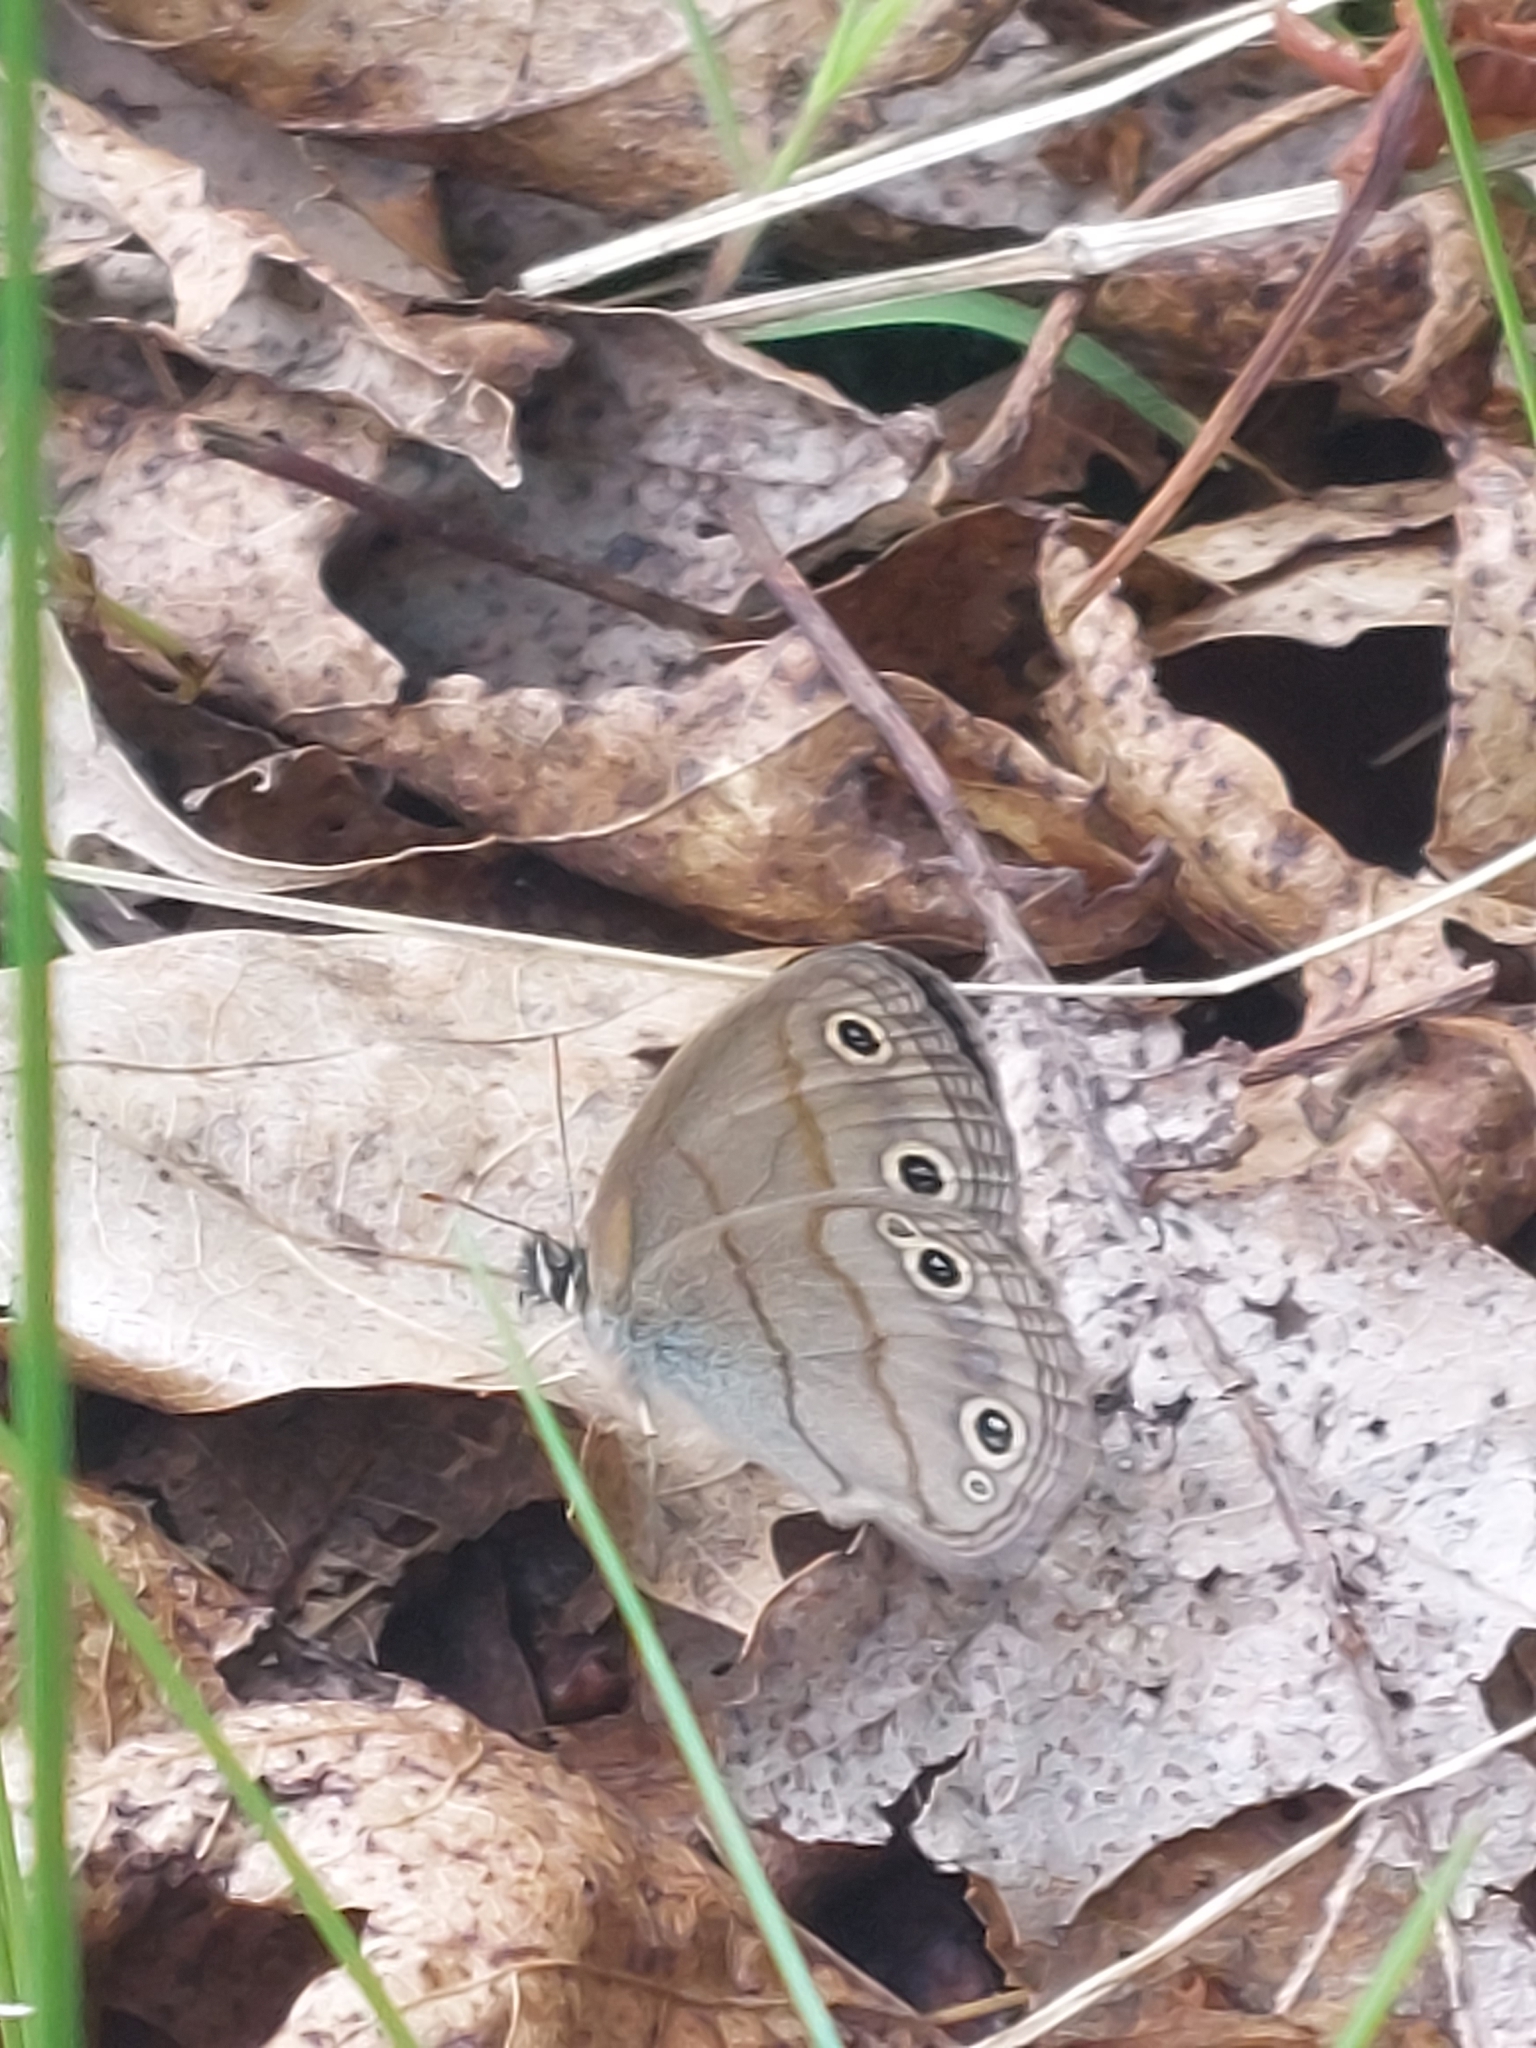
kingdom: Animalia
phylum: Arthropoda
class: Insecta
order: Lepidoptera
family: Nymphalidae
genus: Euptychia
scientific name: Euptychia cymela
